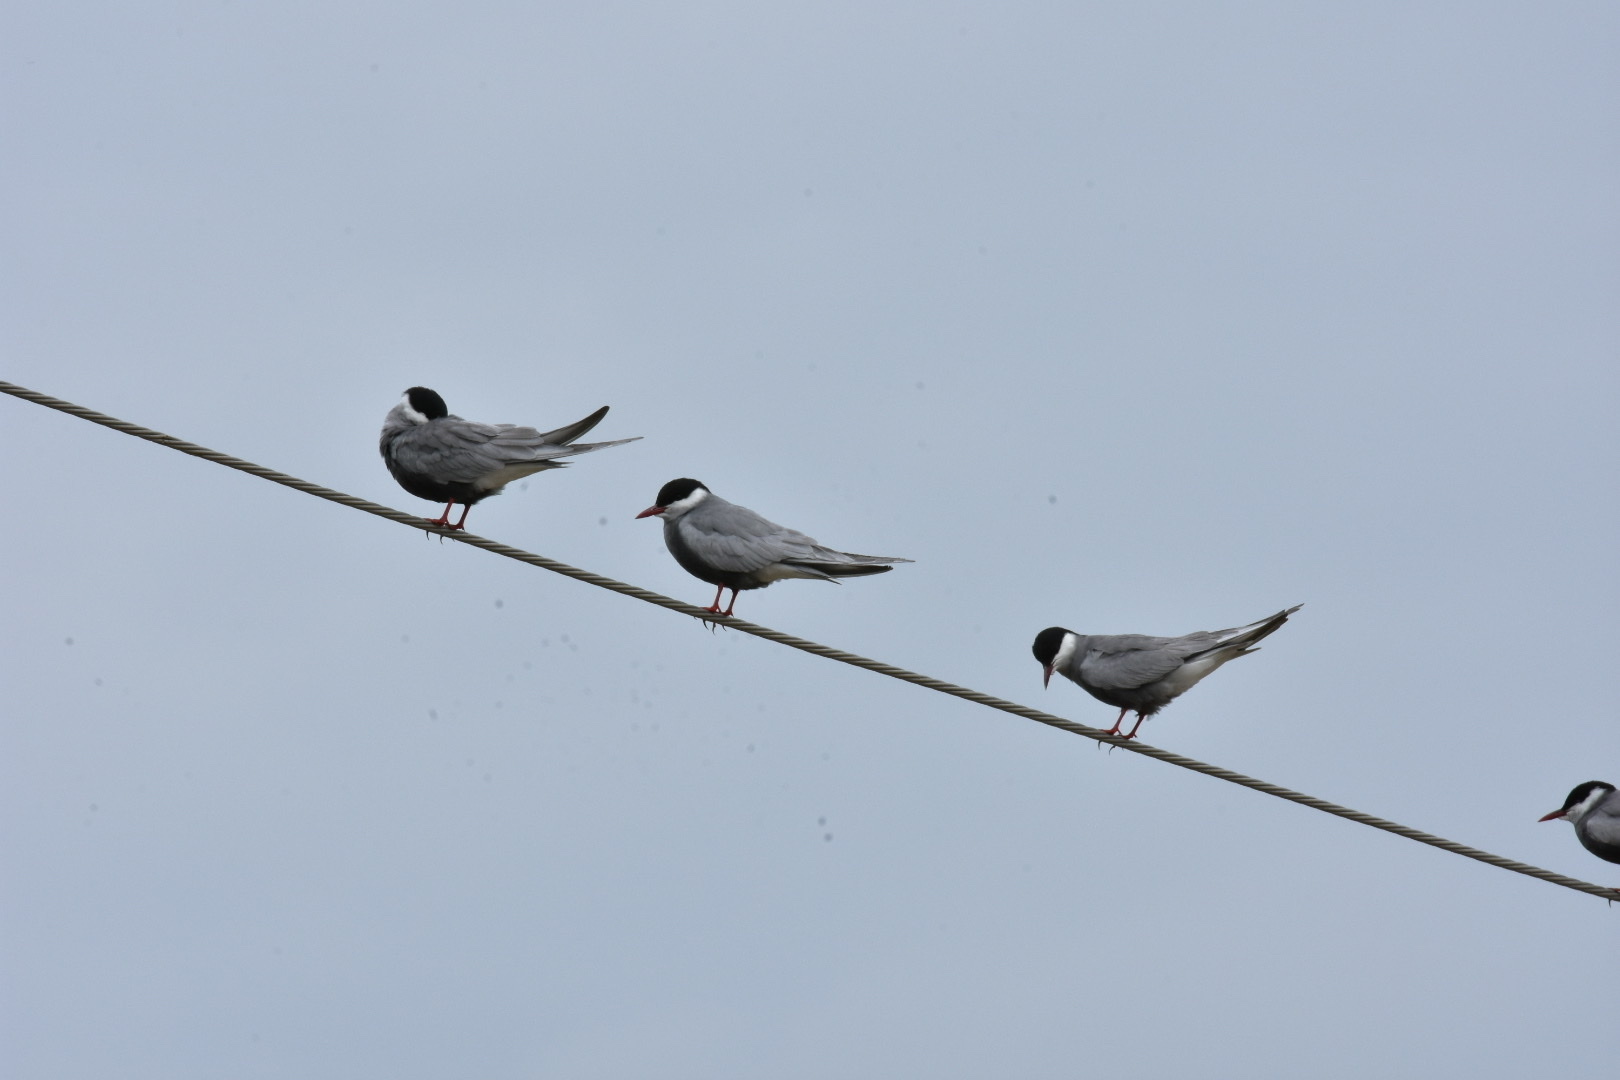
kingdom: Animalia
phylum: Chordata
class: Aves
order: Charadriiformes
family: Laridae
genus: Chlidonias
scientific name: Chlidonias hybrida
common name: Whiskered tern
